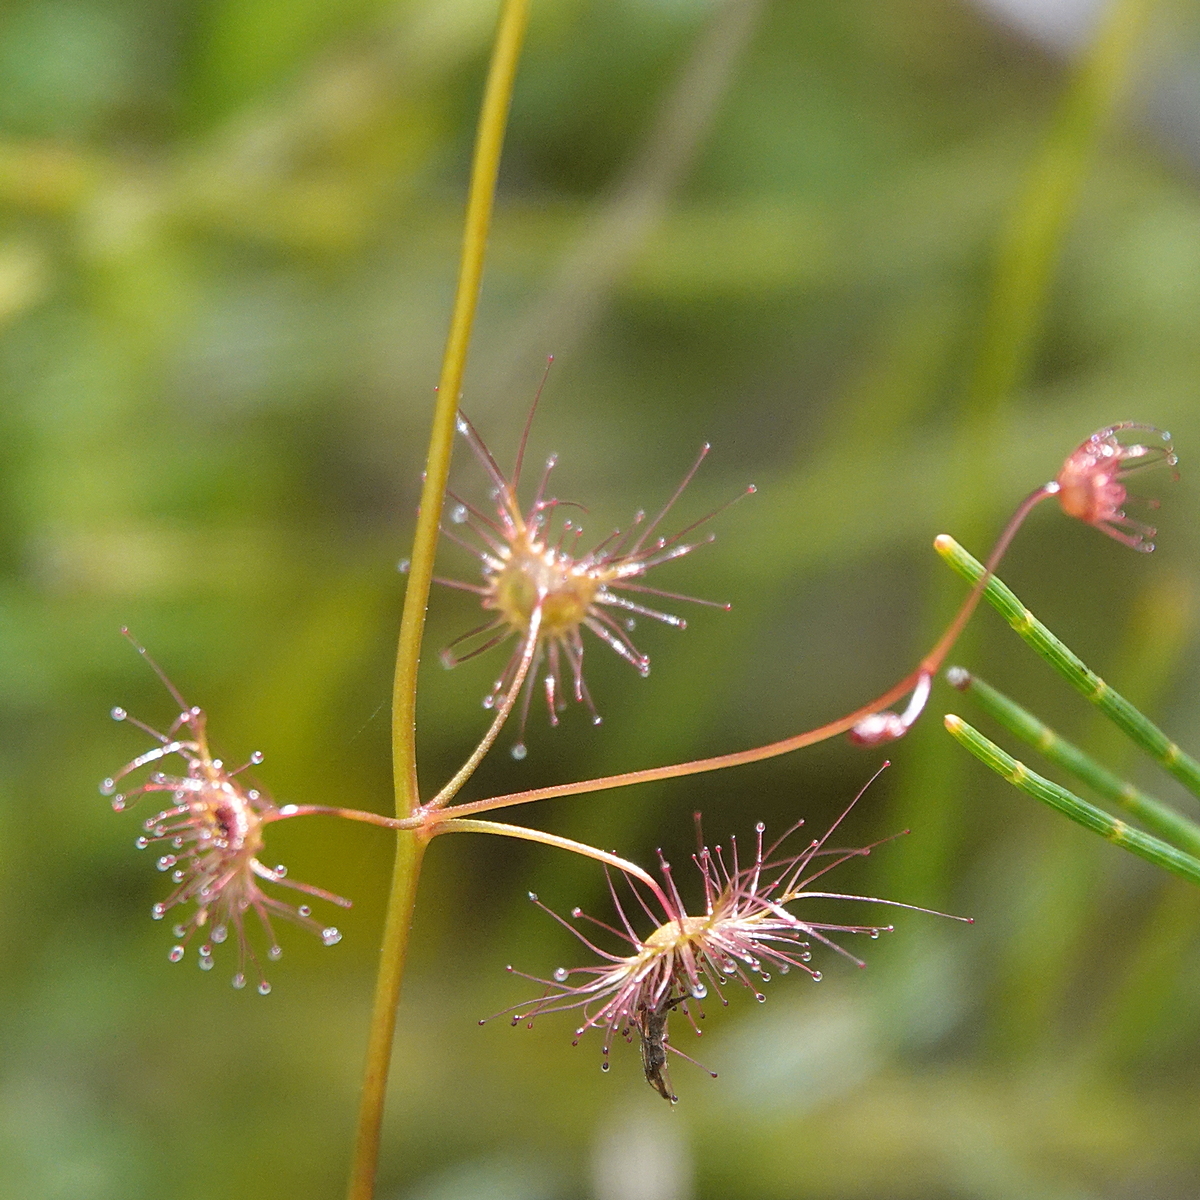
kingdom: Plantae
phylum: Tracheophyta
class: Magnoliopsida
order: Caryophyllales
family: Droseraceae
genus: Drosera
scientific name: Drosera peltata
